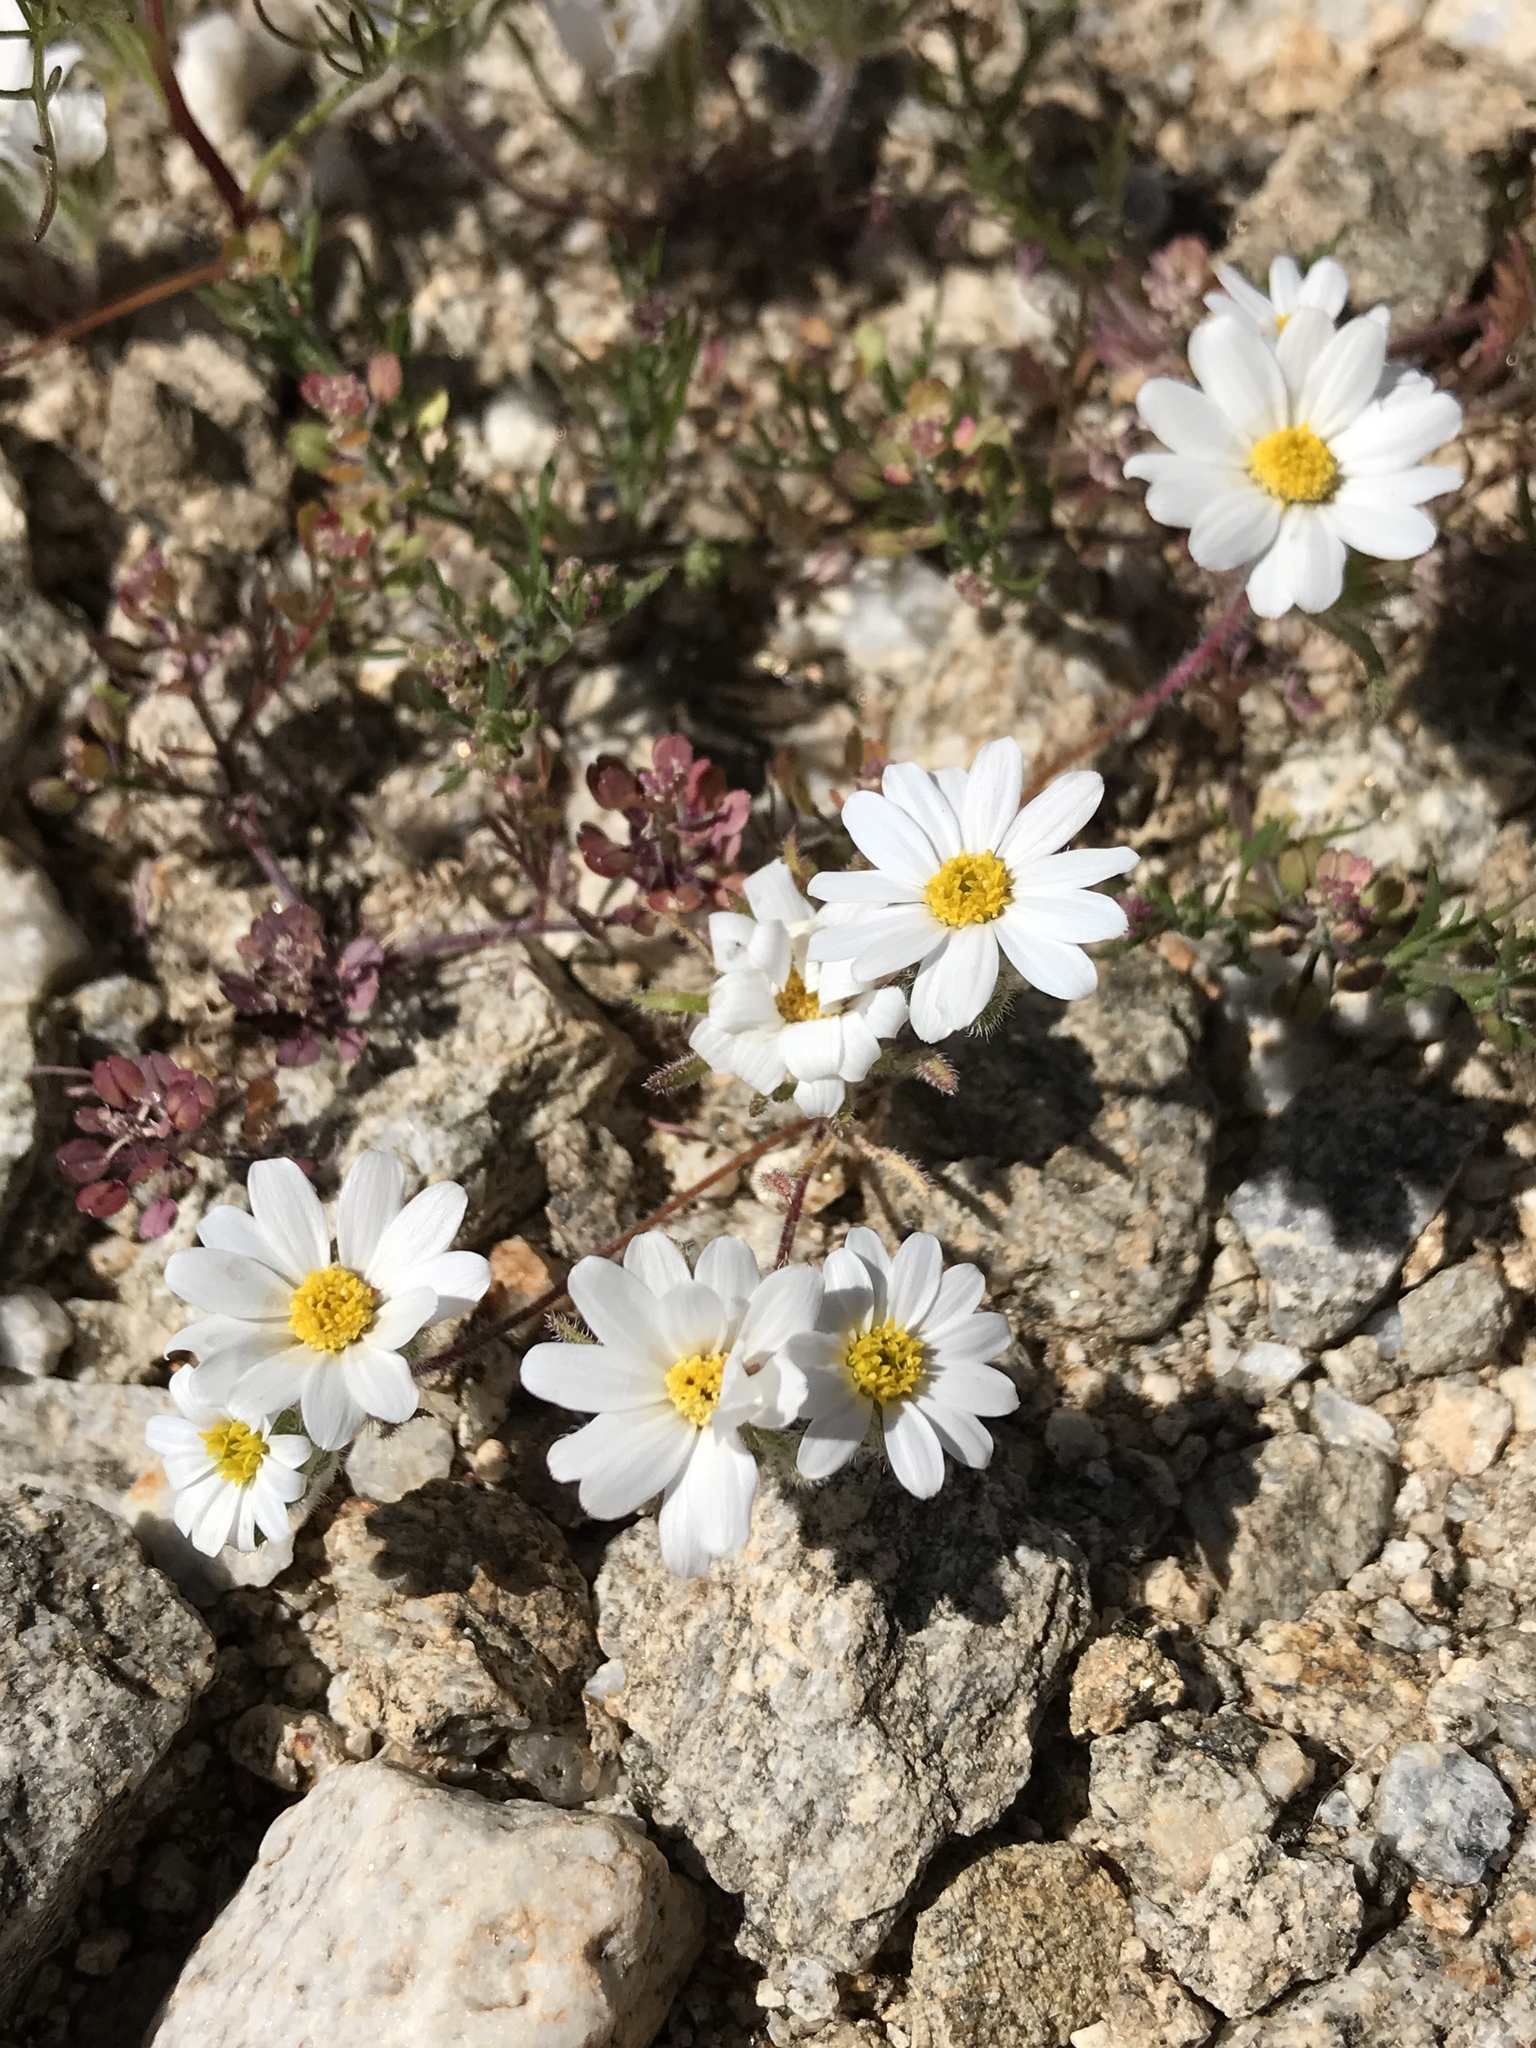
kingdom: Plantae
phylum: Tracheophyta
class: Magnoliopsida
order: Asterales
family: Asteraceae
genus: Monoptilon
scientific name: Monoptilon bellioides
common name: Bristly desertstar
